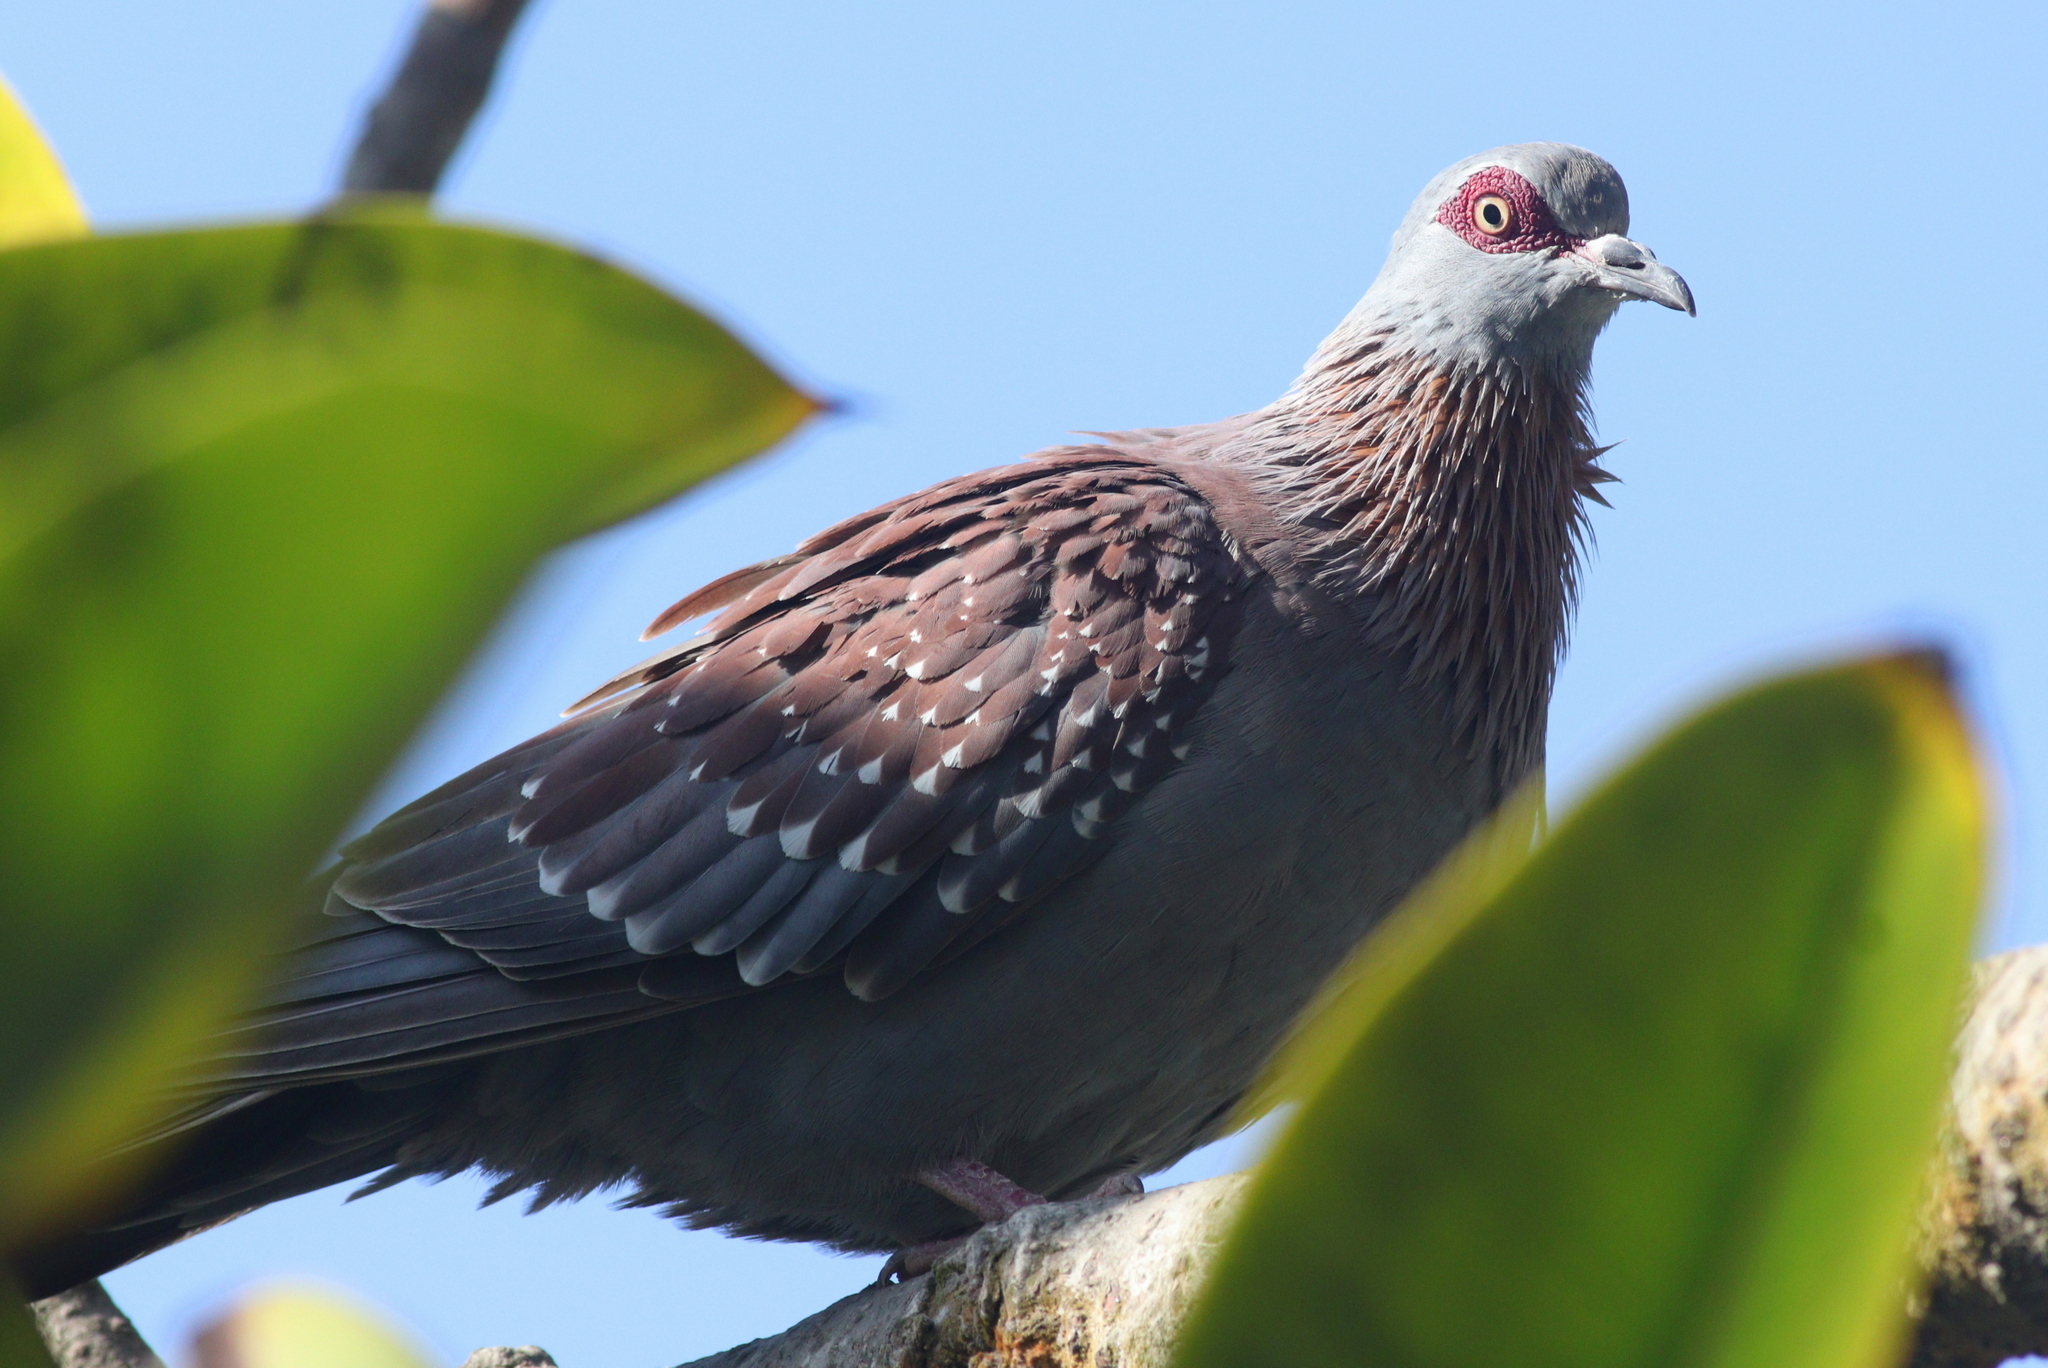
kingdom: Animalia
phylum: Chordata
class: Aves
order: Columbiformes
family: Columbidae
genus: Columba
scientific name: Columba guinea
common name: Speckled pigeon
